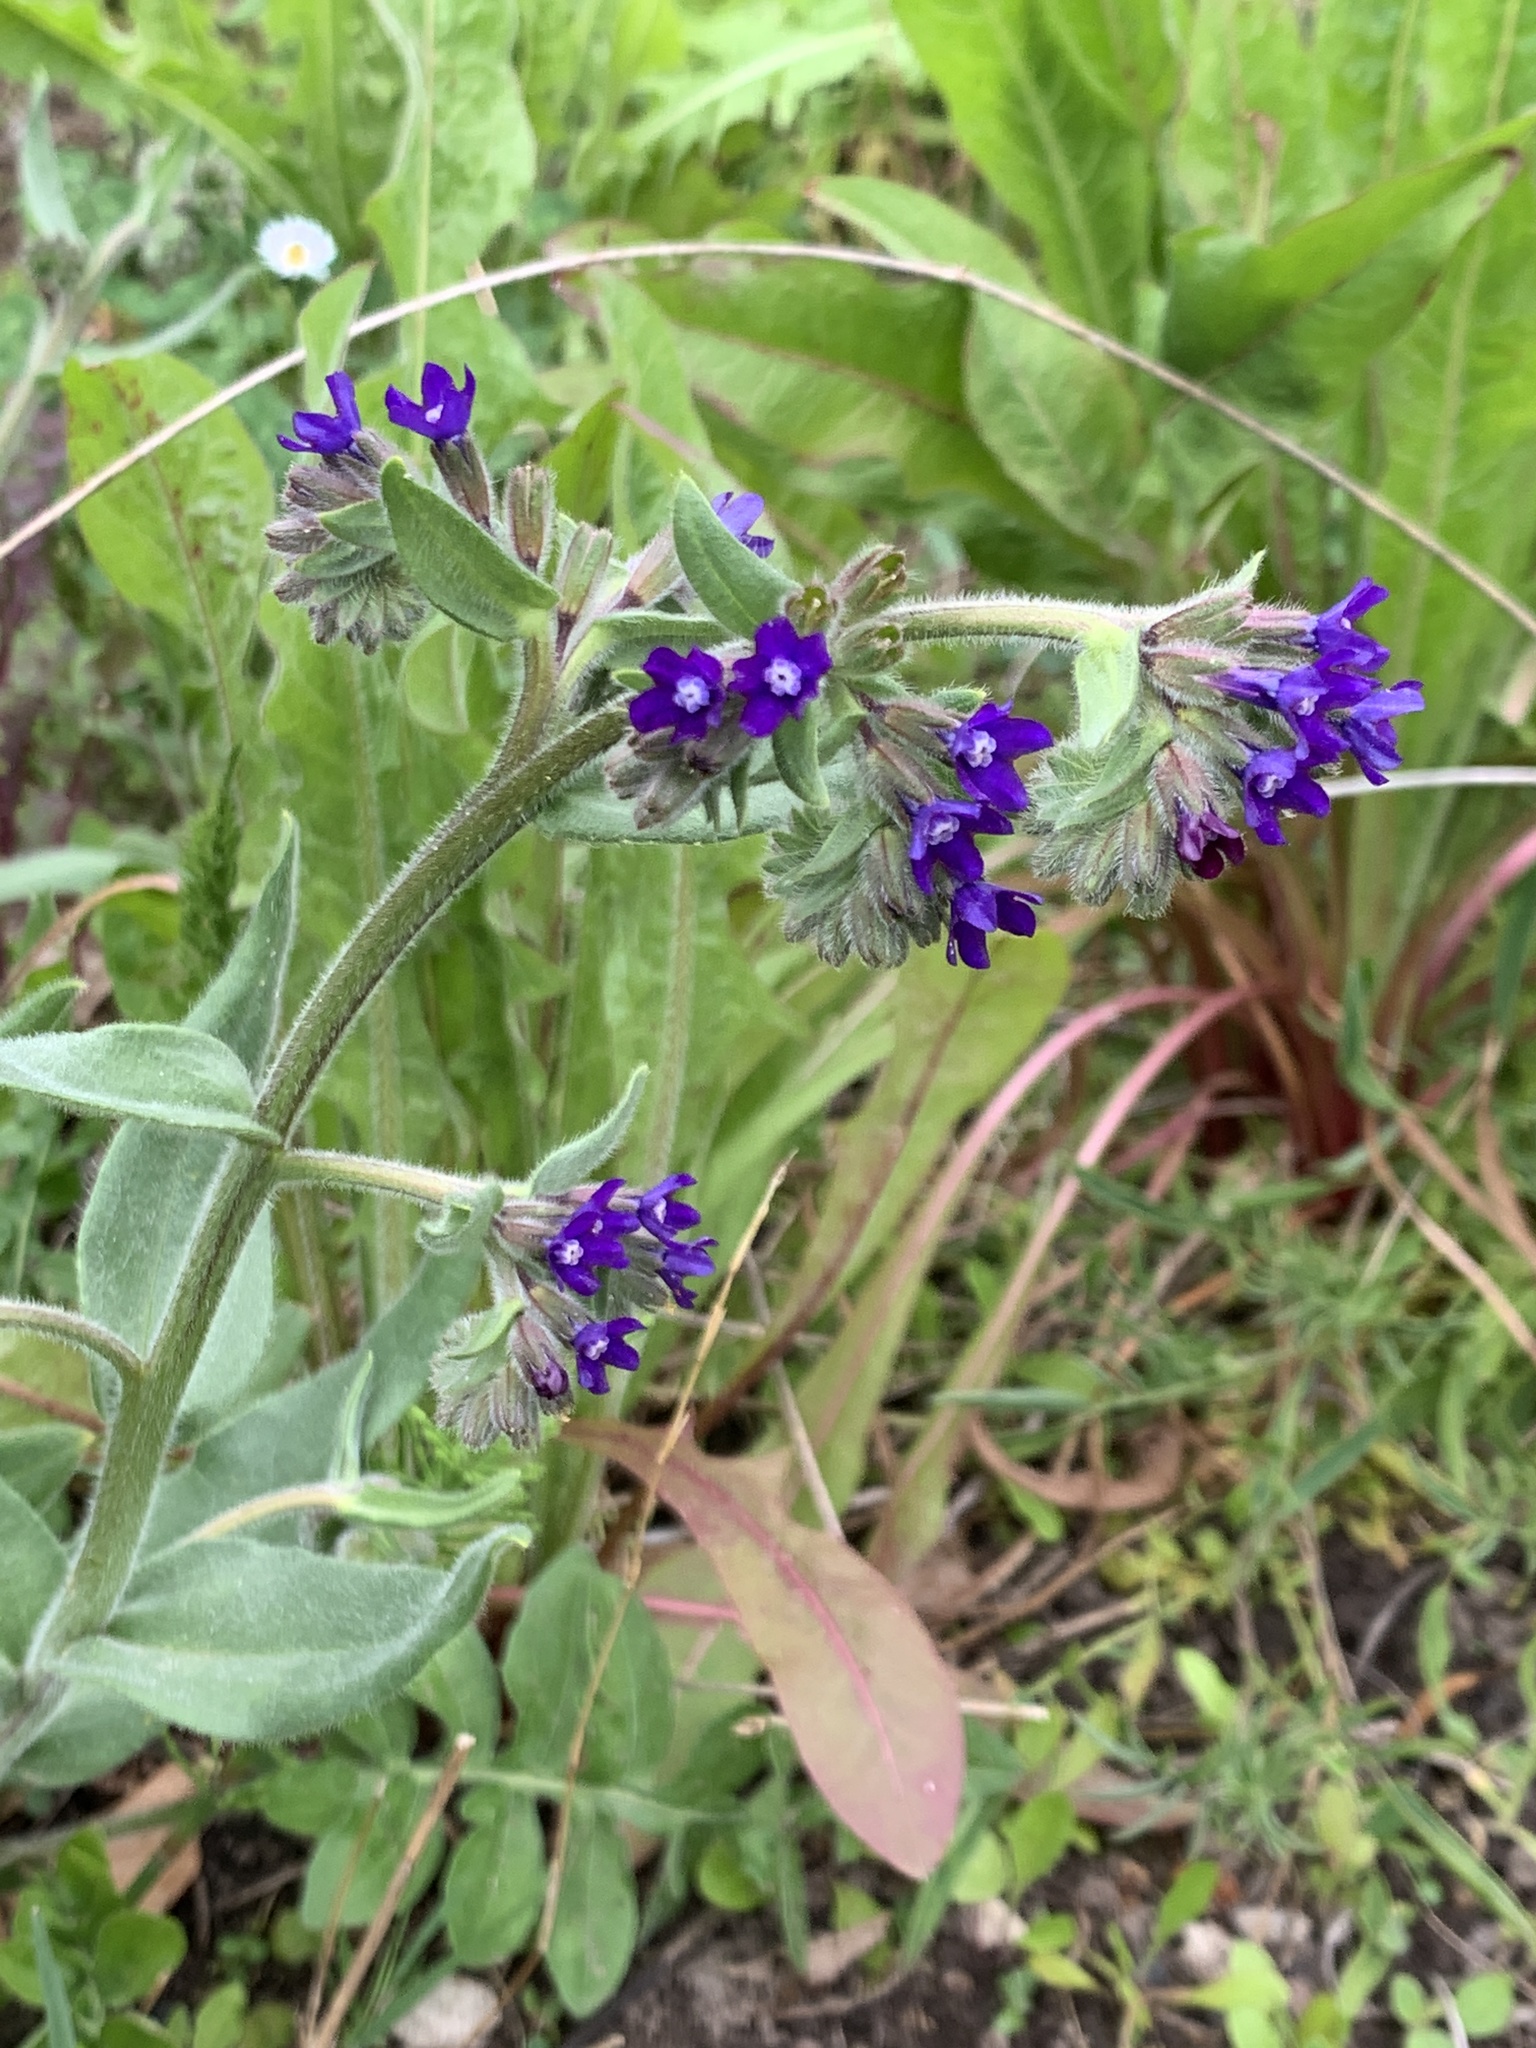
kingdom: Plantae
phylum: Tracheophyta
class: Magnoliopsida
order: Boraginales
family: Boraginaceae
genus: Anchusa
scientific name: Anchusa officinalis
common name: Alkanet
